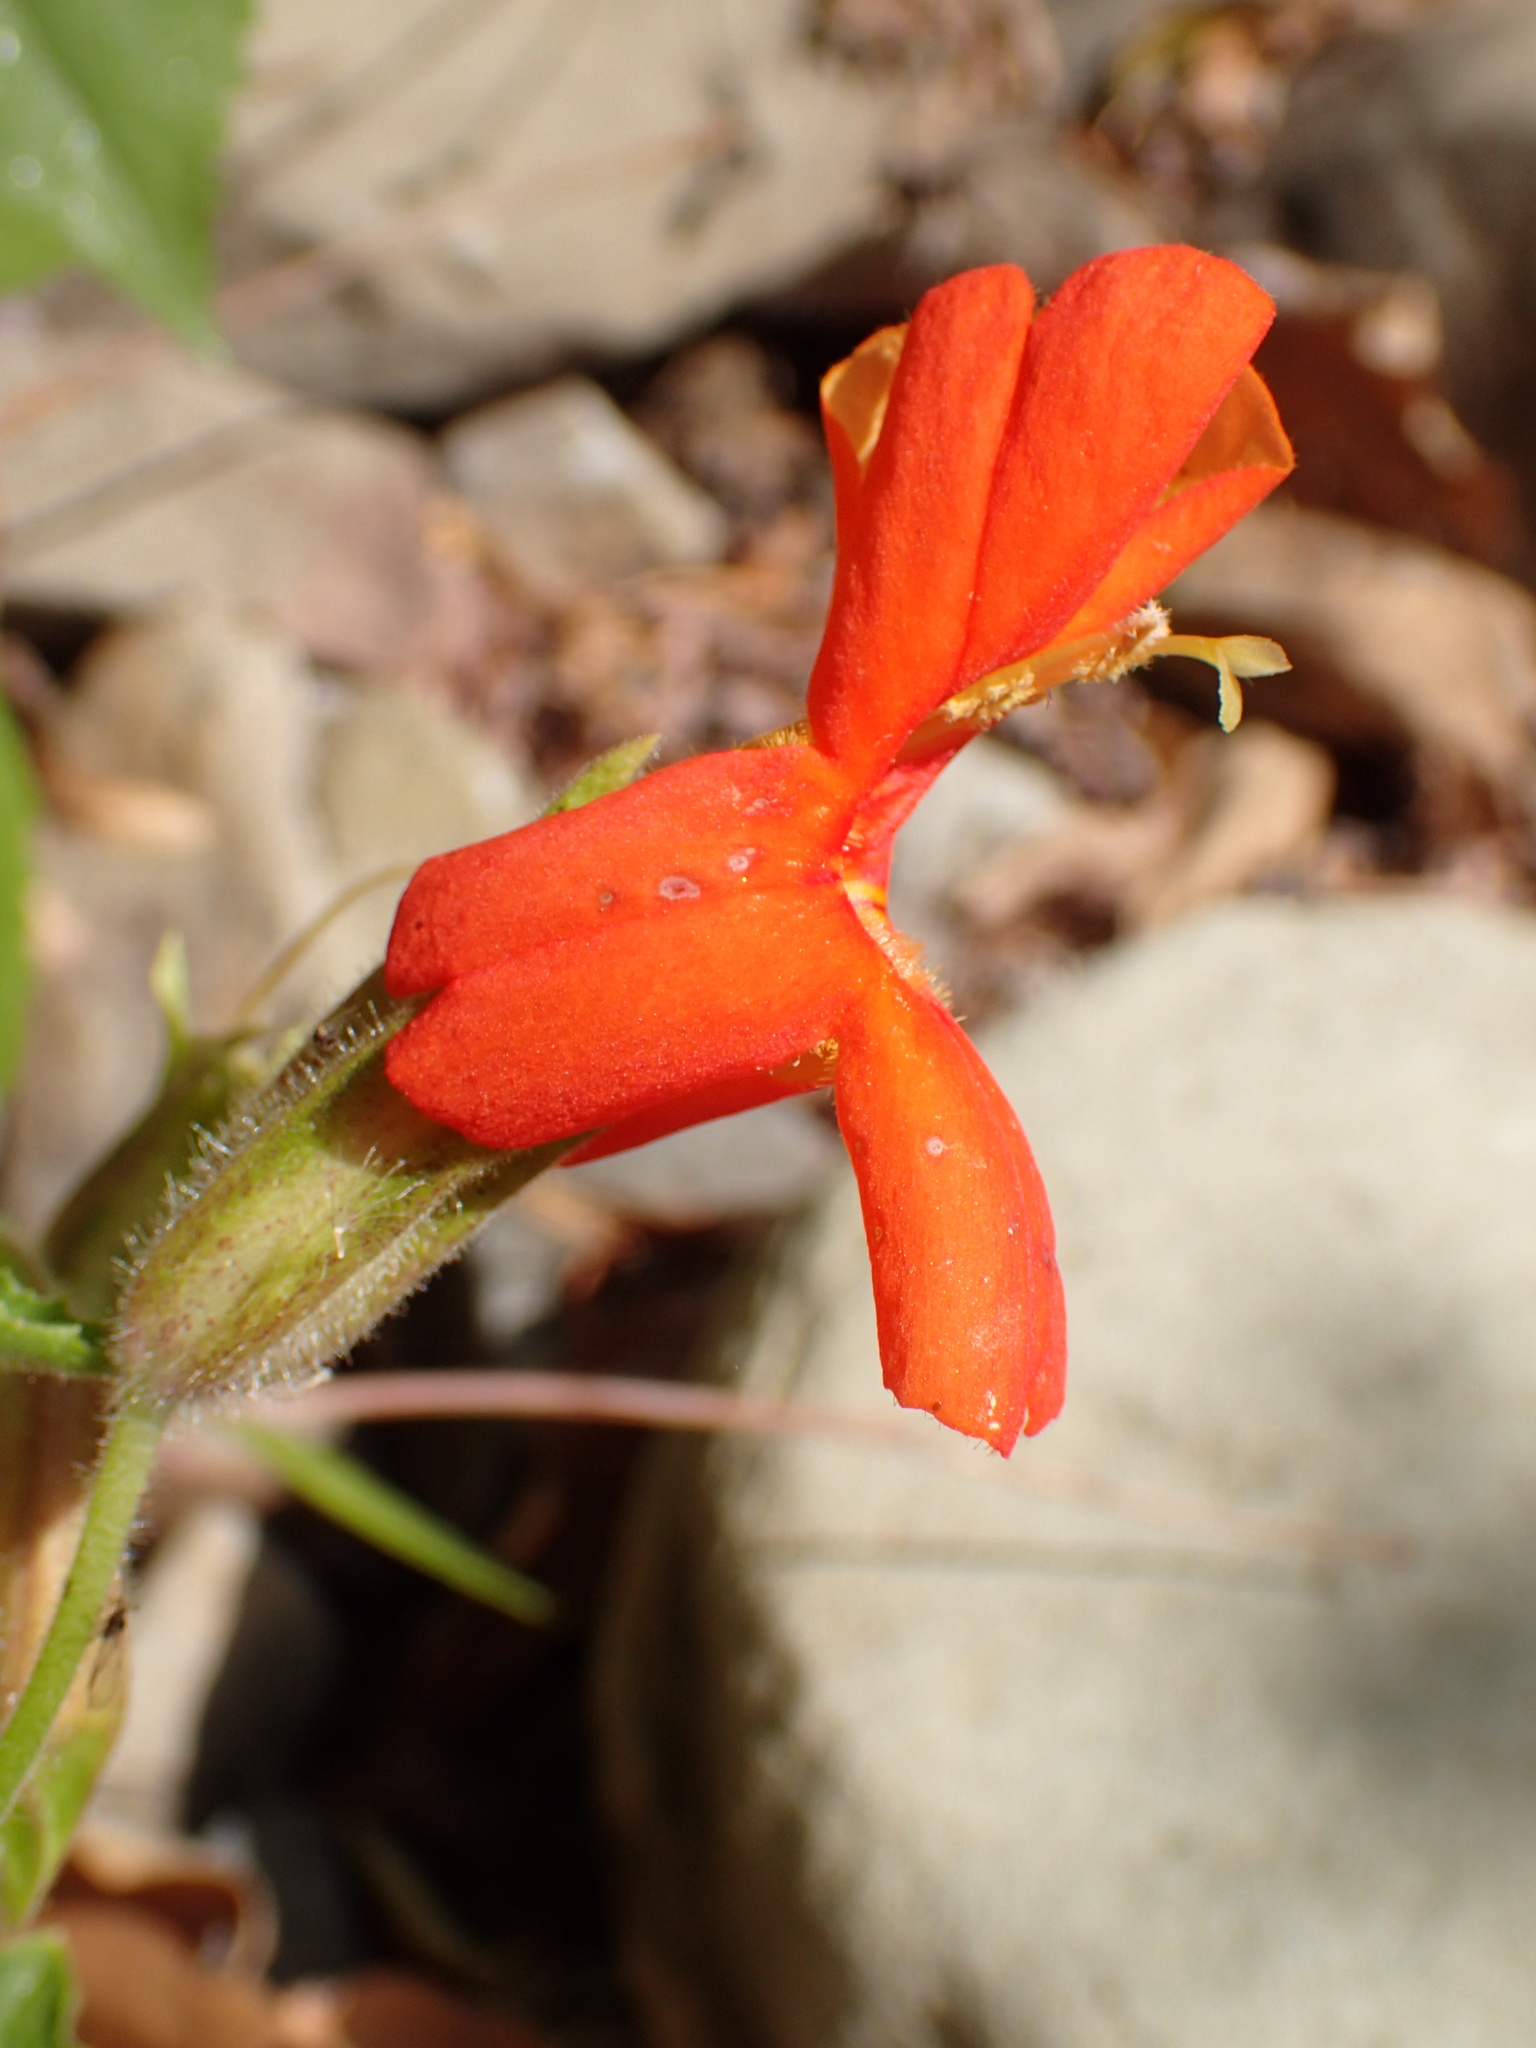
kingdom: Plantae
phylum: Tracheophyta
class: Magnoliopsida
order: Lamiales
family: Phrymaceae
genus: Erythranthe
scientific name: Erythranthe cardinalis
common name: Scarlet monkey-flower
